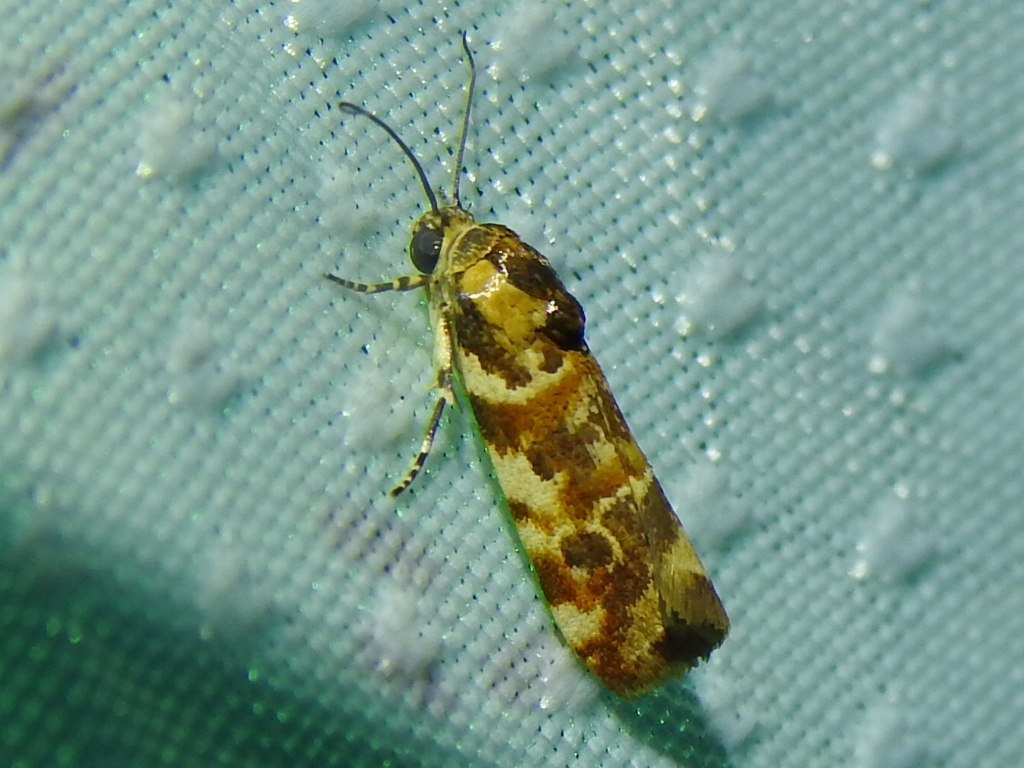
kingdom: Animalia
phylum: Arthropoda
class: Insecta
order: Lepidoptera
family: Noctuidae
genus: Spragueia
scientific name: Spragueia jaguaralis
